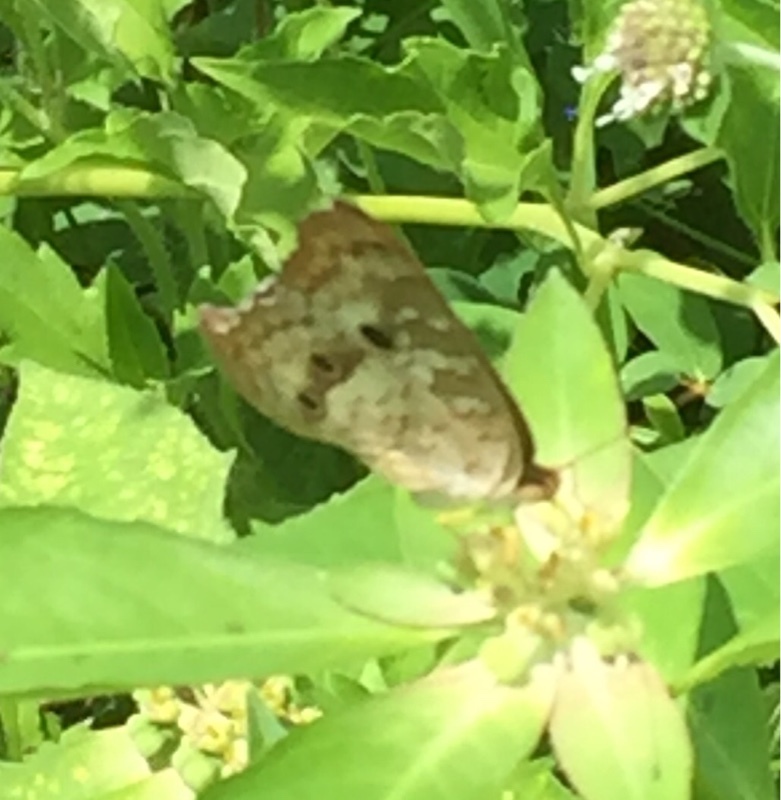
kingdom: Animalia
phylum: Arthropoda
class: Insecta
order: Lepidoptera
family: Nymphalidae
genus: Anartia
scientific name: Anartia jatrophae
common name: White peacock
